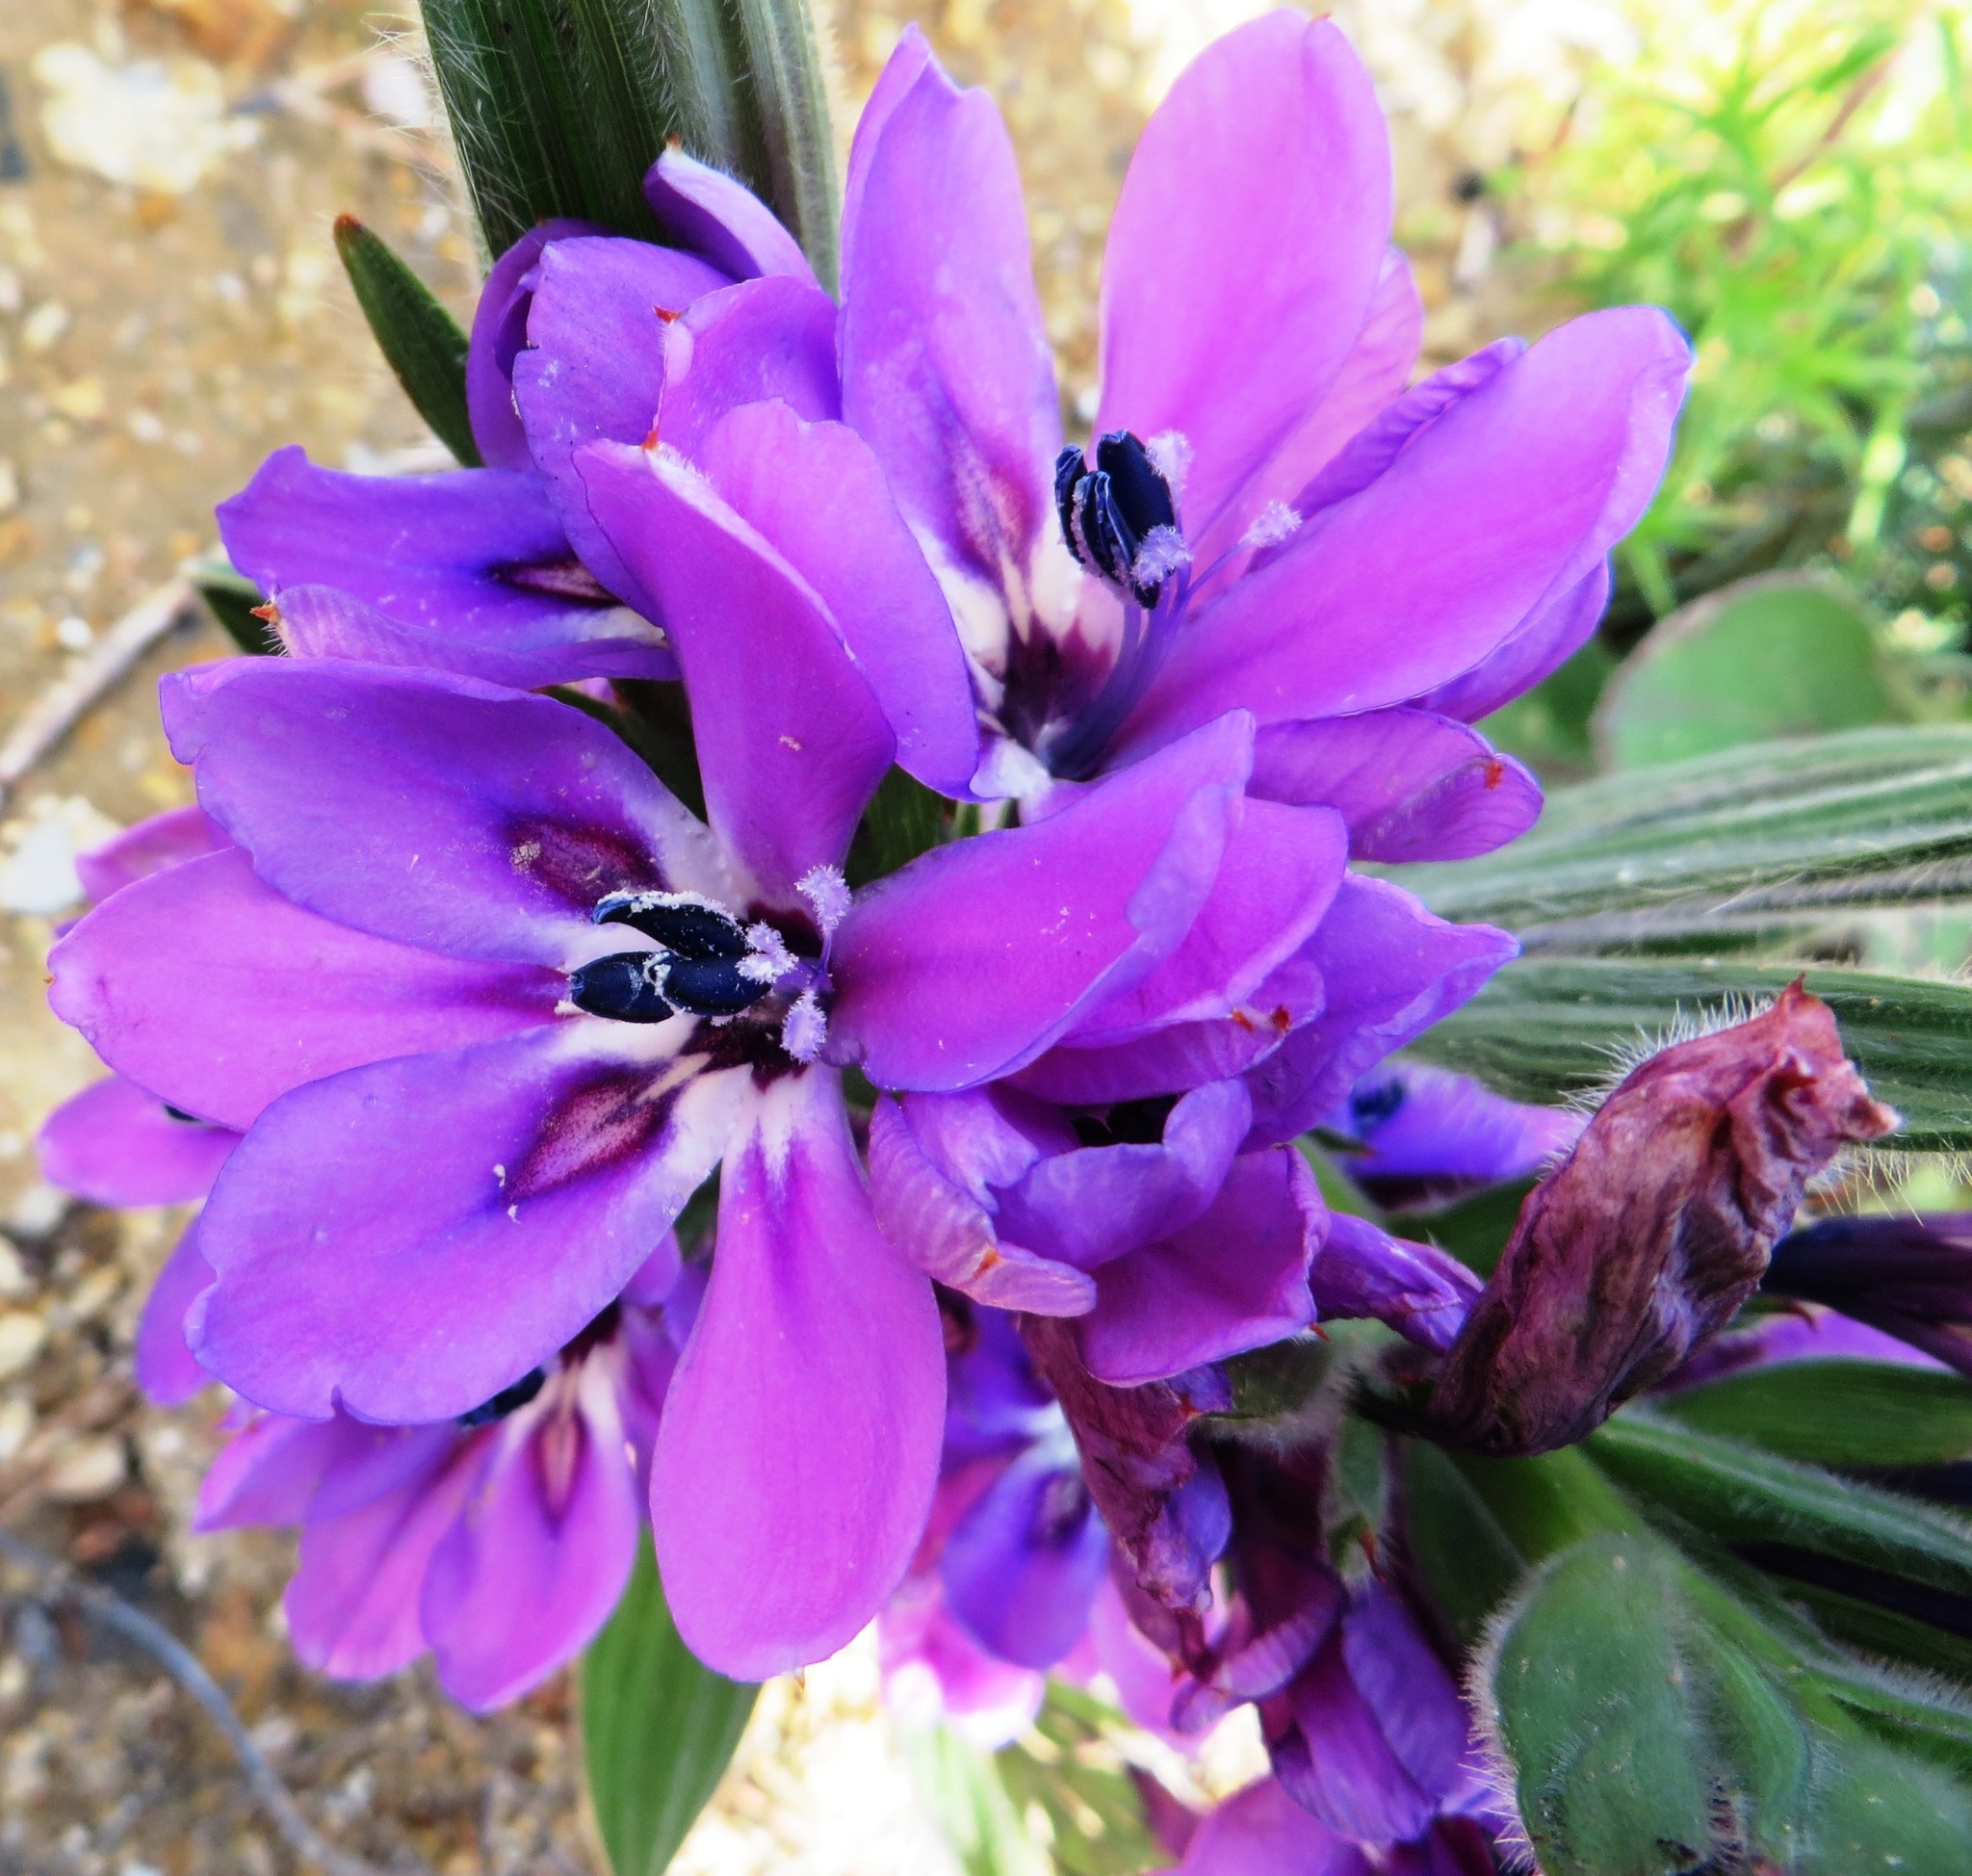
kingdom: Plantae
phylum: Tracheophyta
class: Liliopsida
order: Asparagales
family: Iridaceae
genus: Babiana
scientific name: Babiana fragrans
